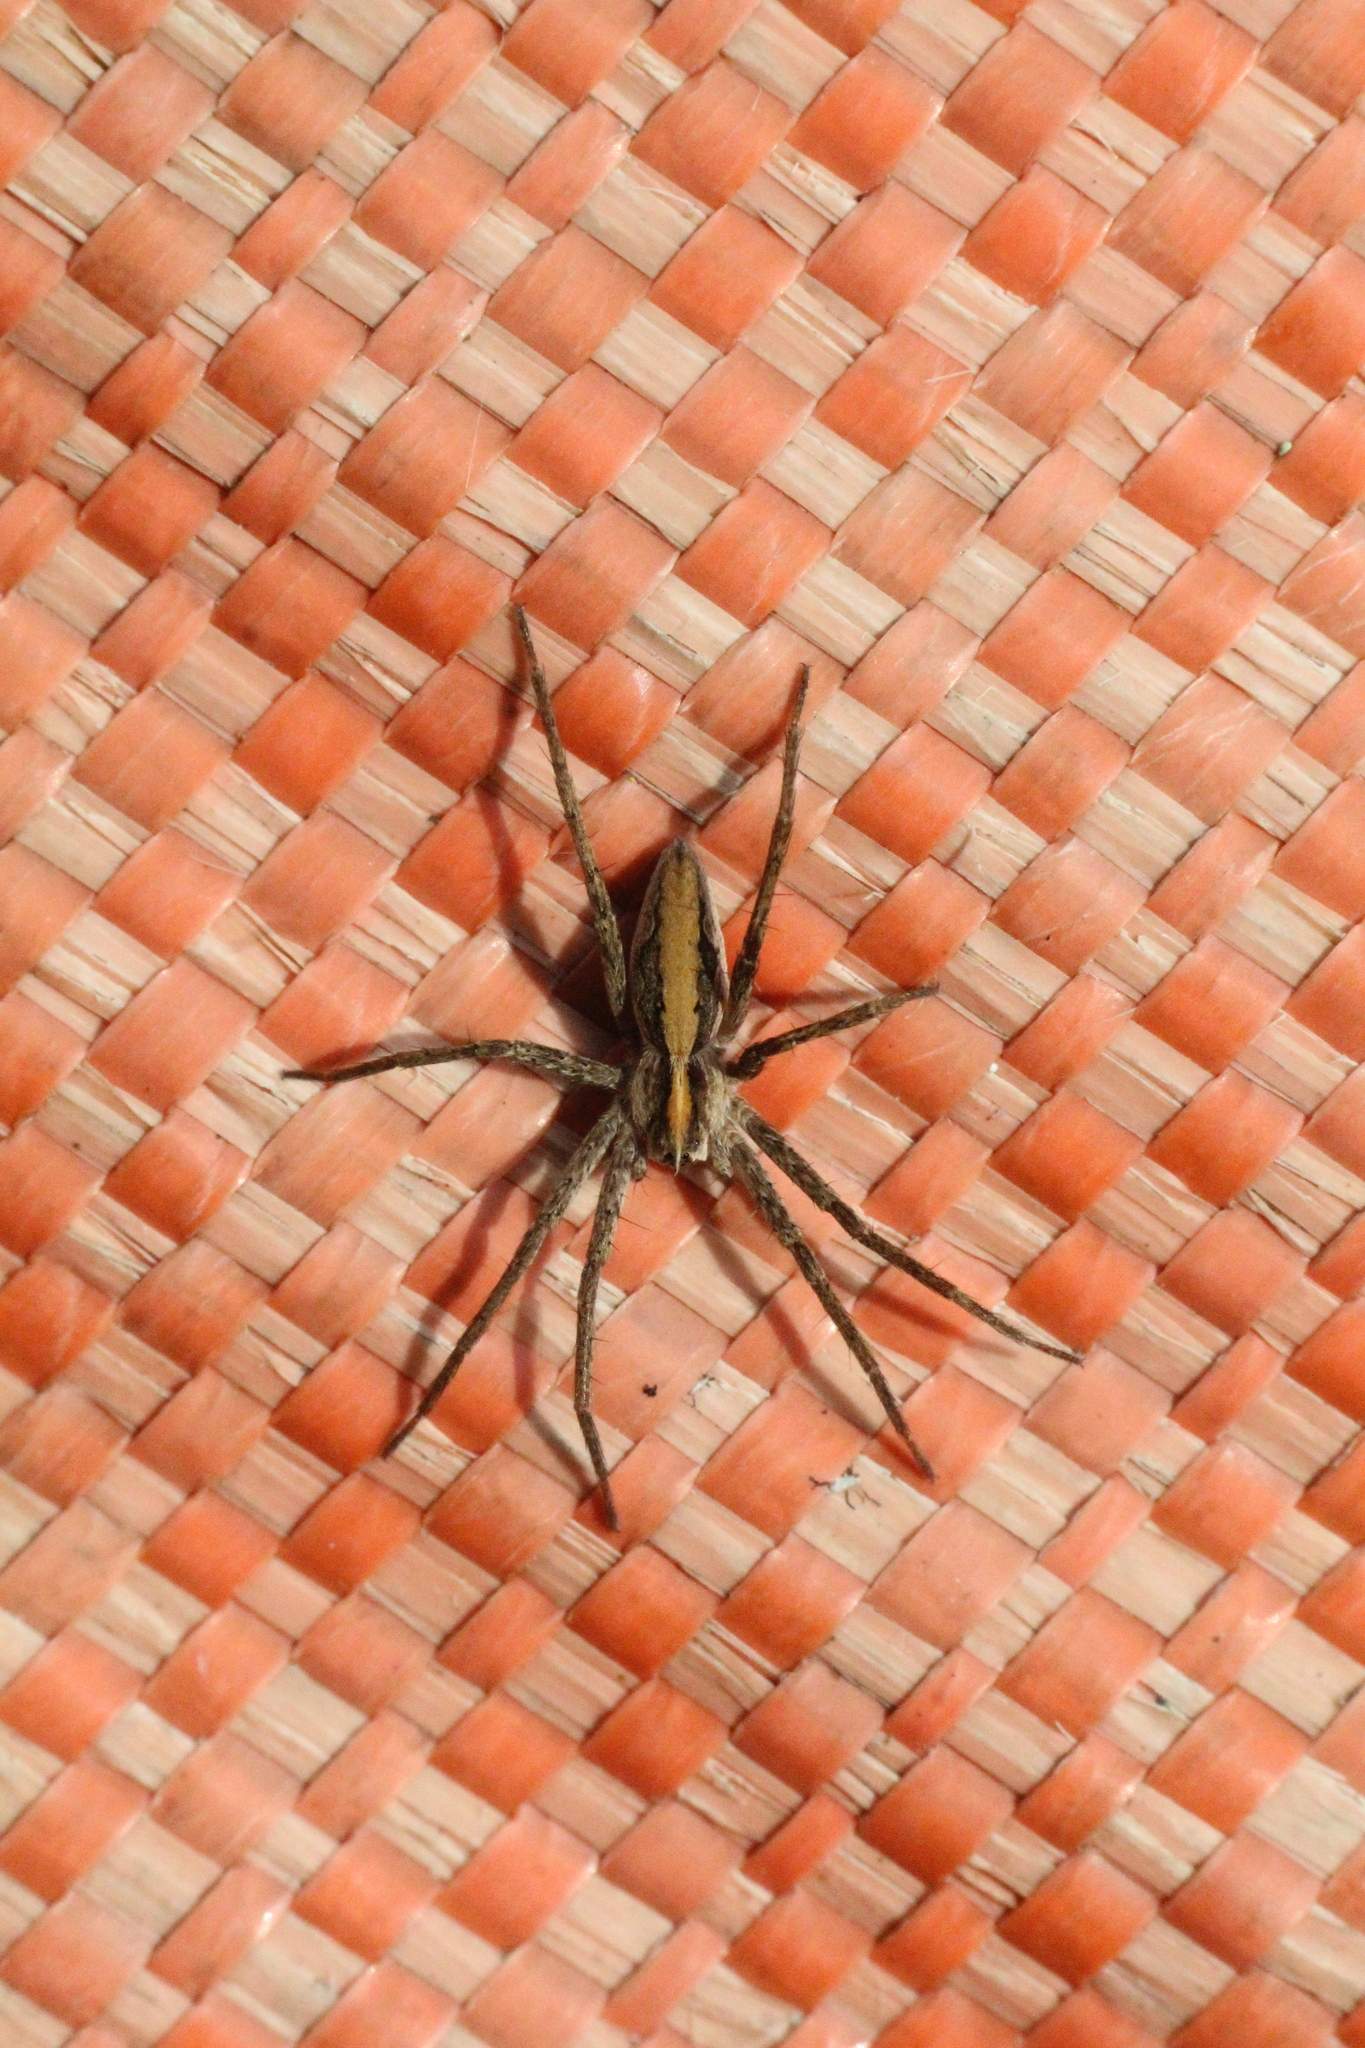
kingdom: Animalia
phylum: Arthropoda
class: Arachnida
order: Araneae
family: Pisauridae
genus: Pisaura
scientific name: Pisaura mirabilis
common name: Tent spider
